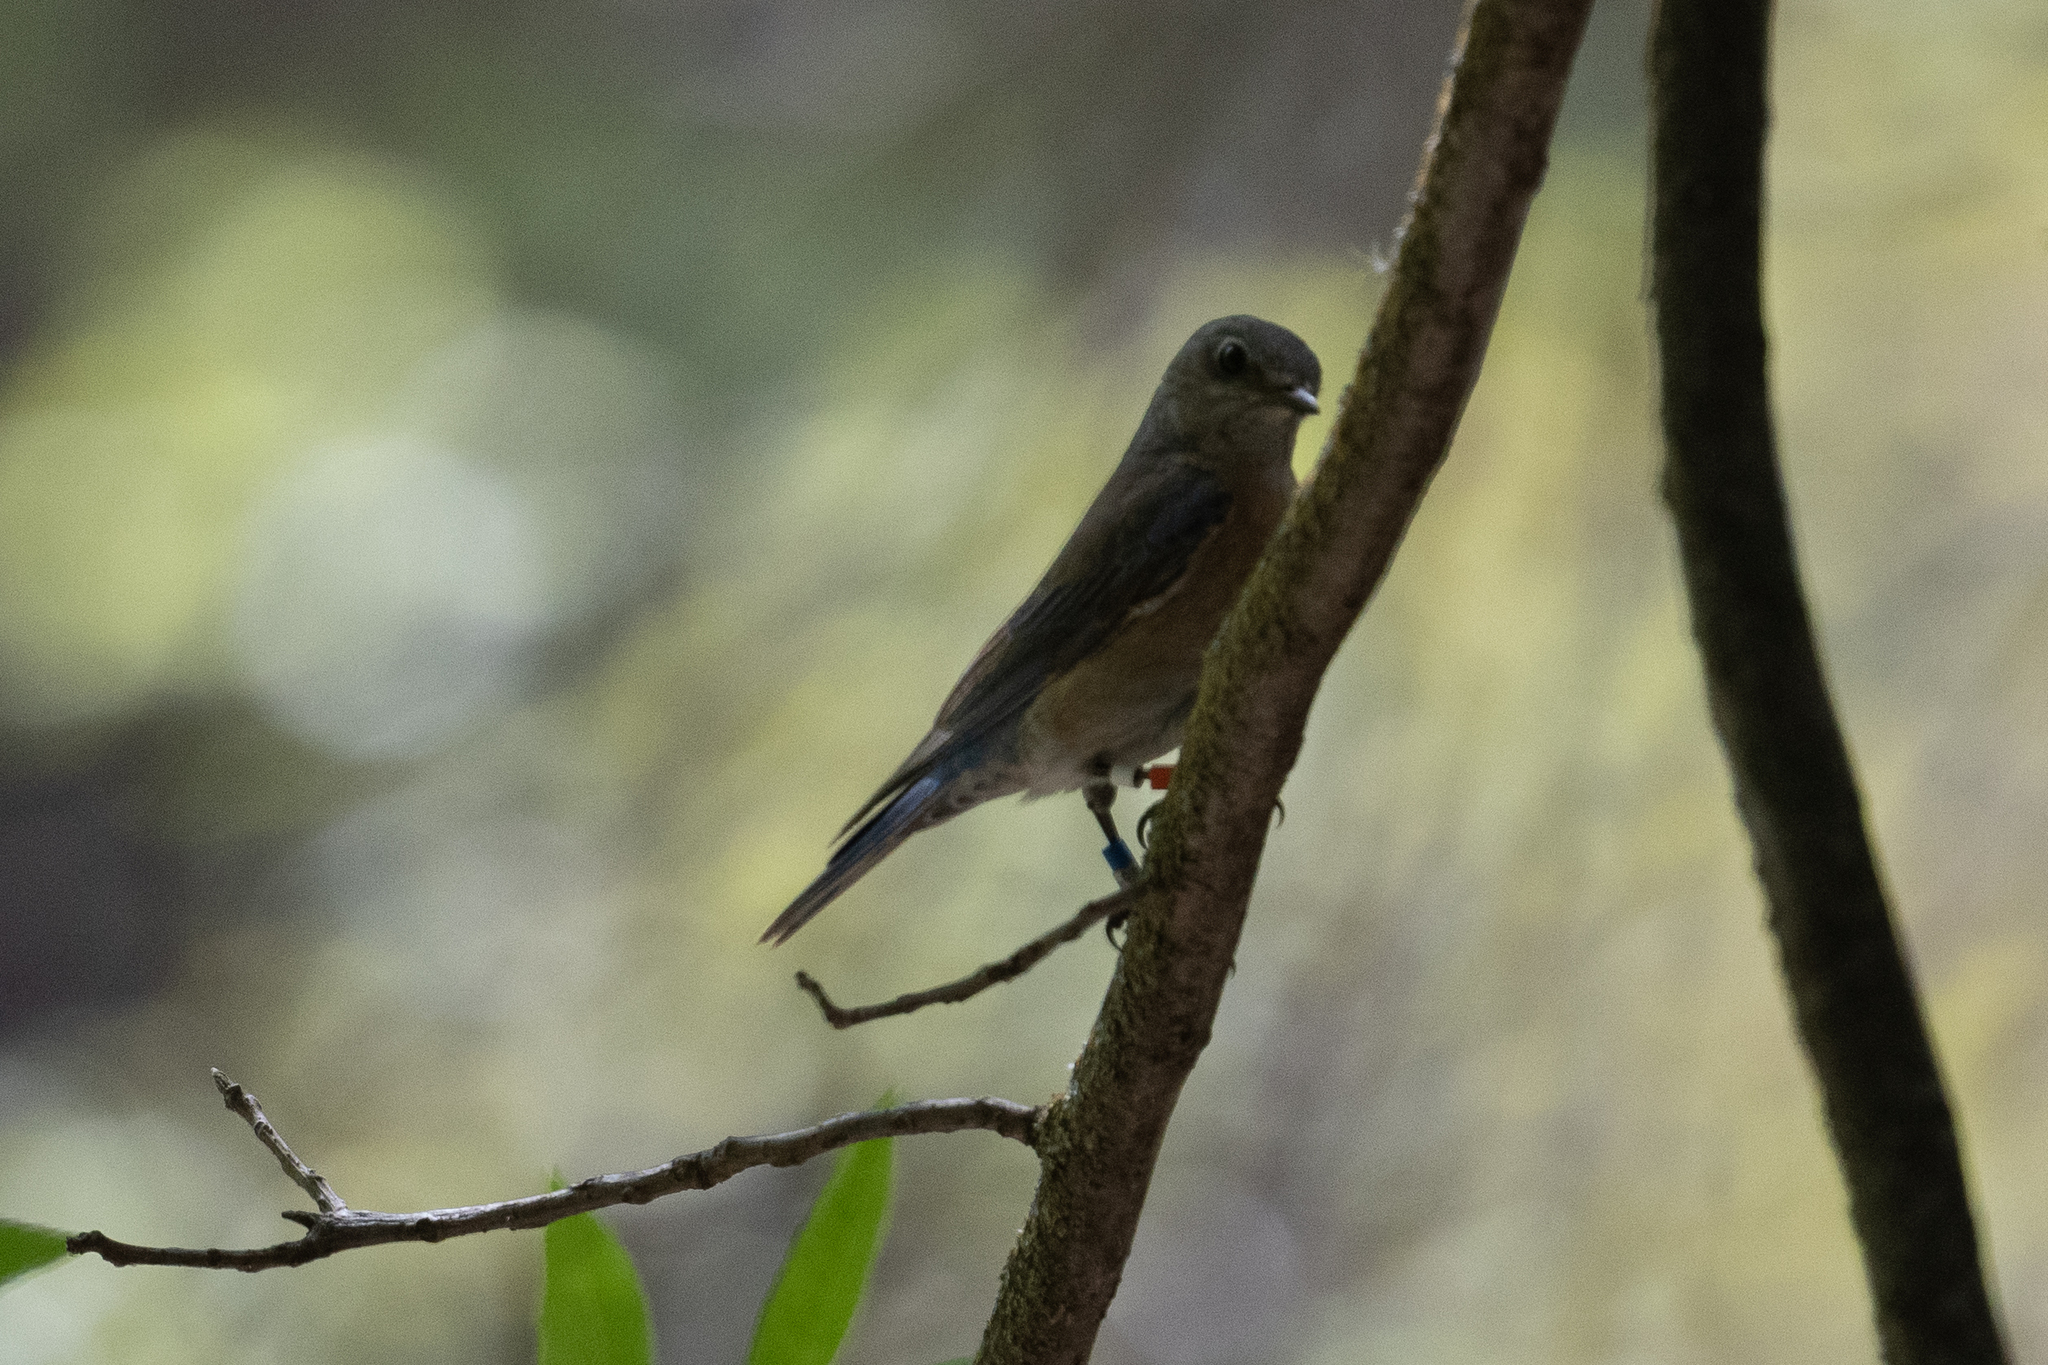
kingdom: Animalia
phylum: Chordata
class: Aves
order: Passeriformes
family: Turdidae
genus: Sialia
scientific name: Sialia mexicana
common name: Western bluebird
